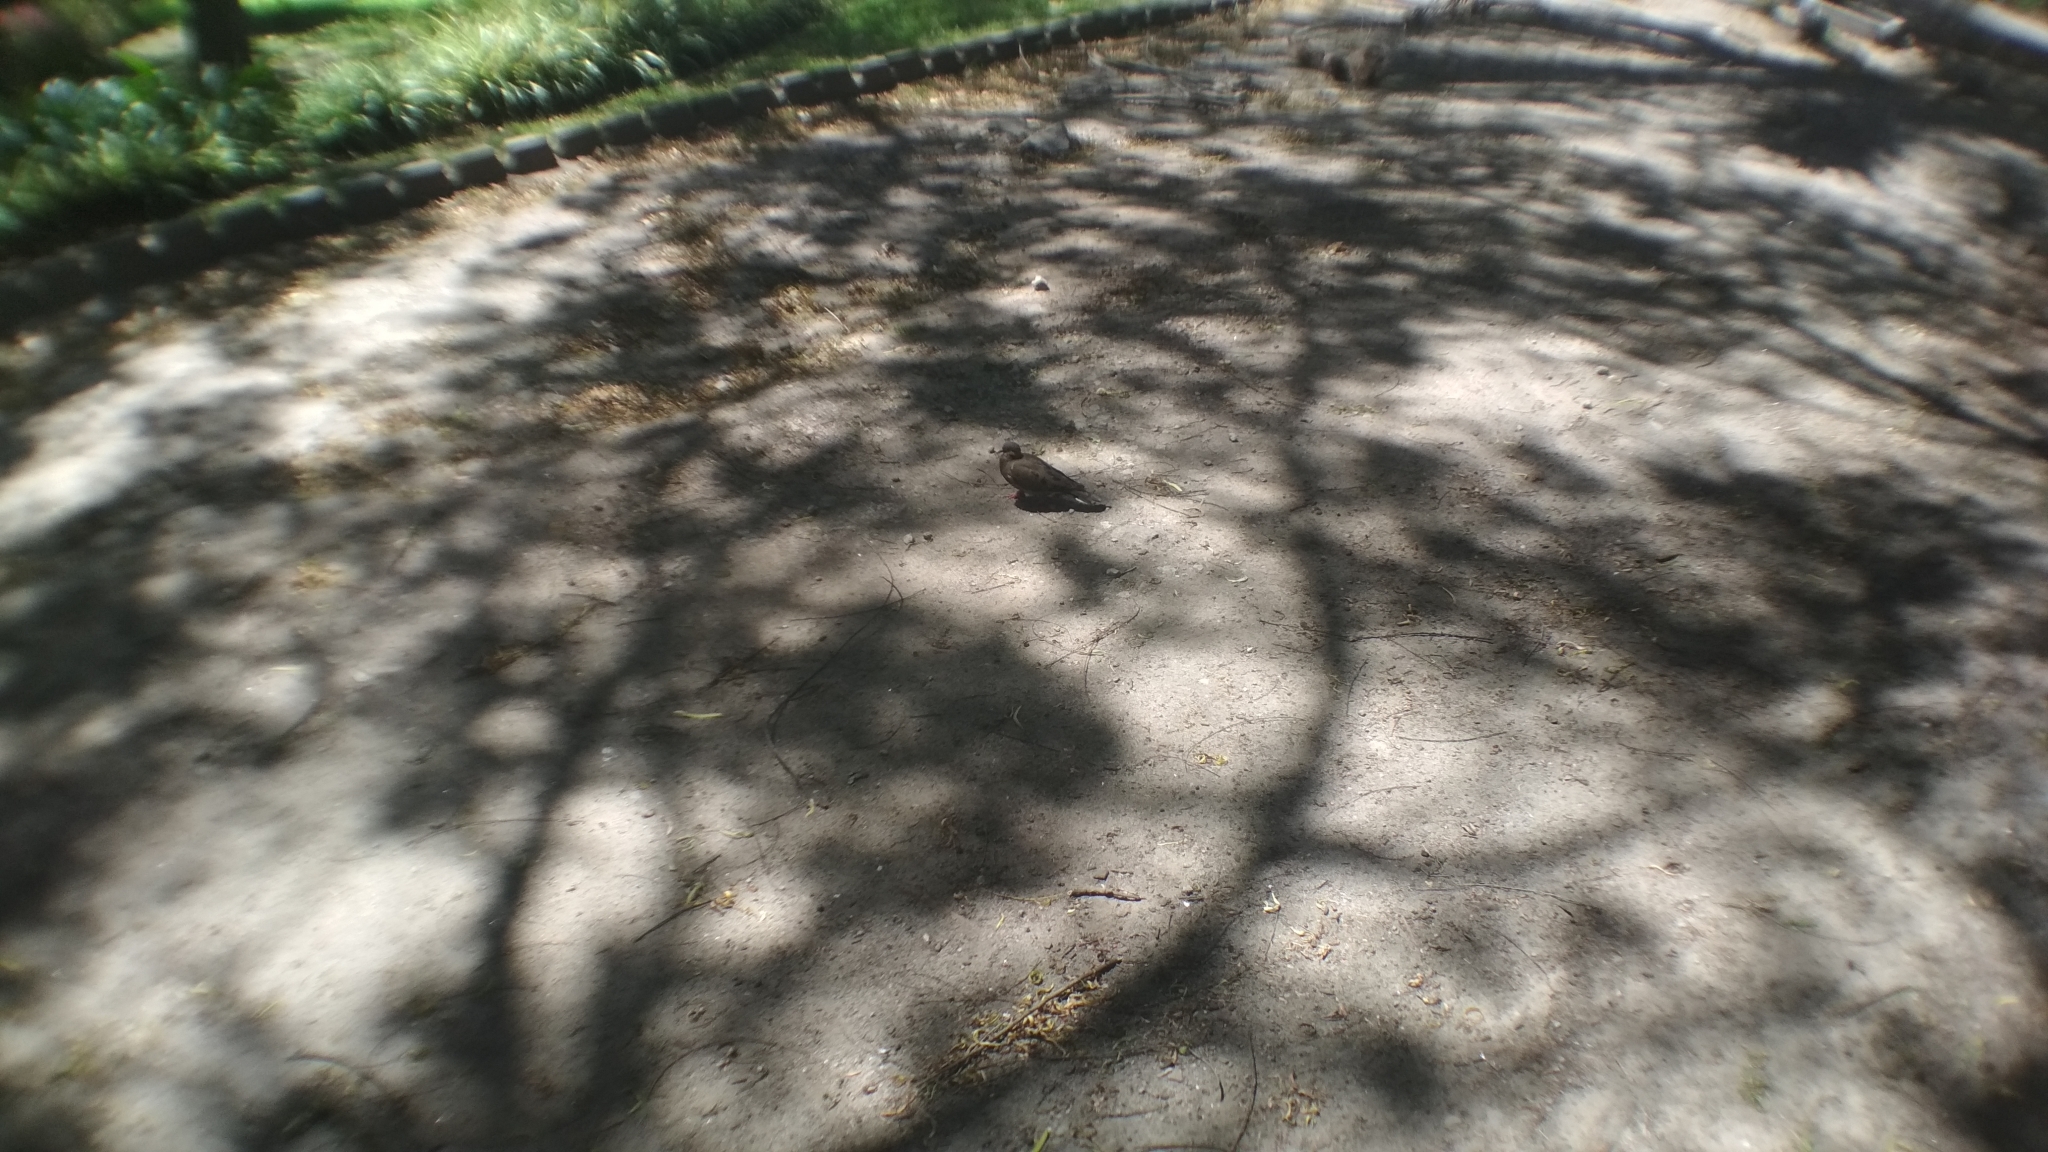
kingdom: Animalia
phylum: Chordata
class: Aves
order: Columbiformes
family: Columbidae
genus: Zenaida
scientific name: Zenaida auriculata
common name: Eared dove
